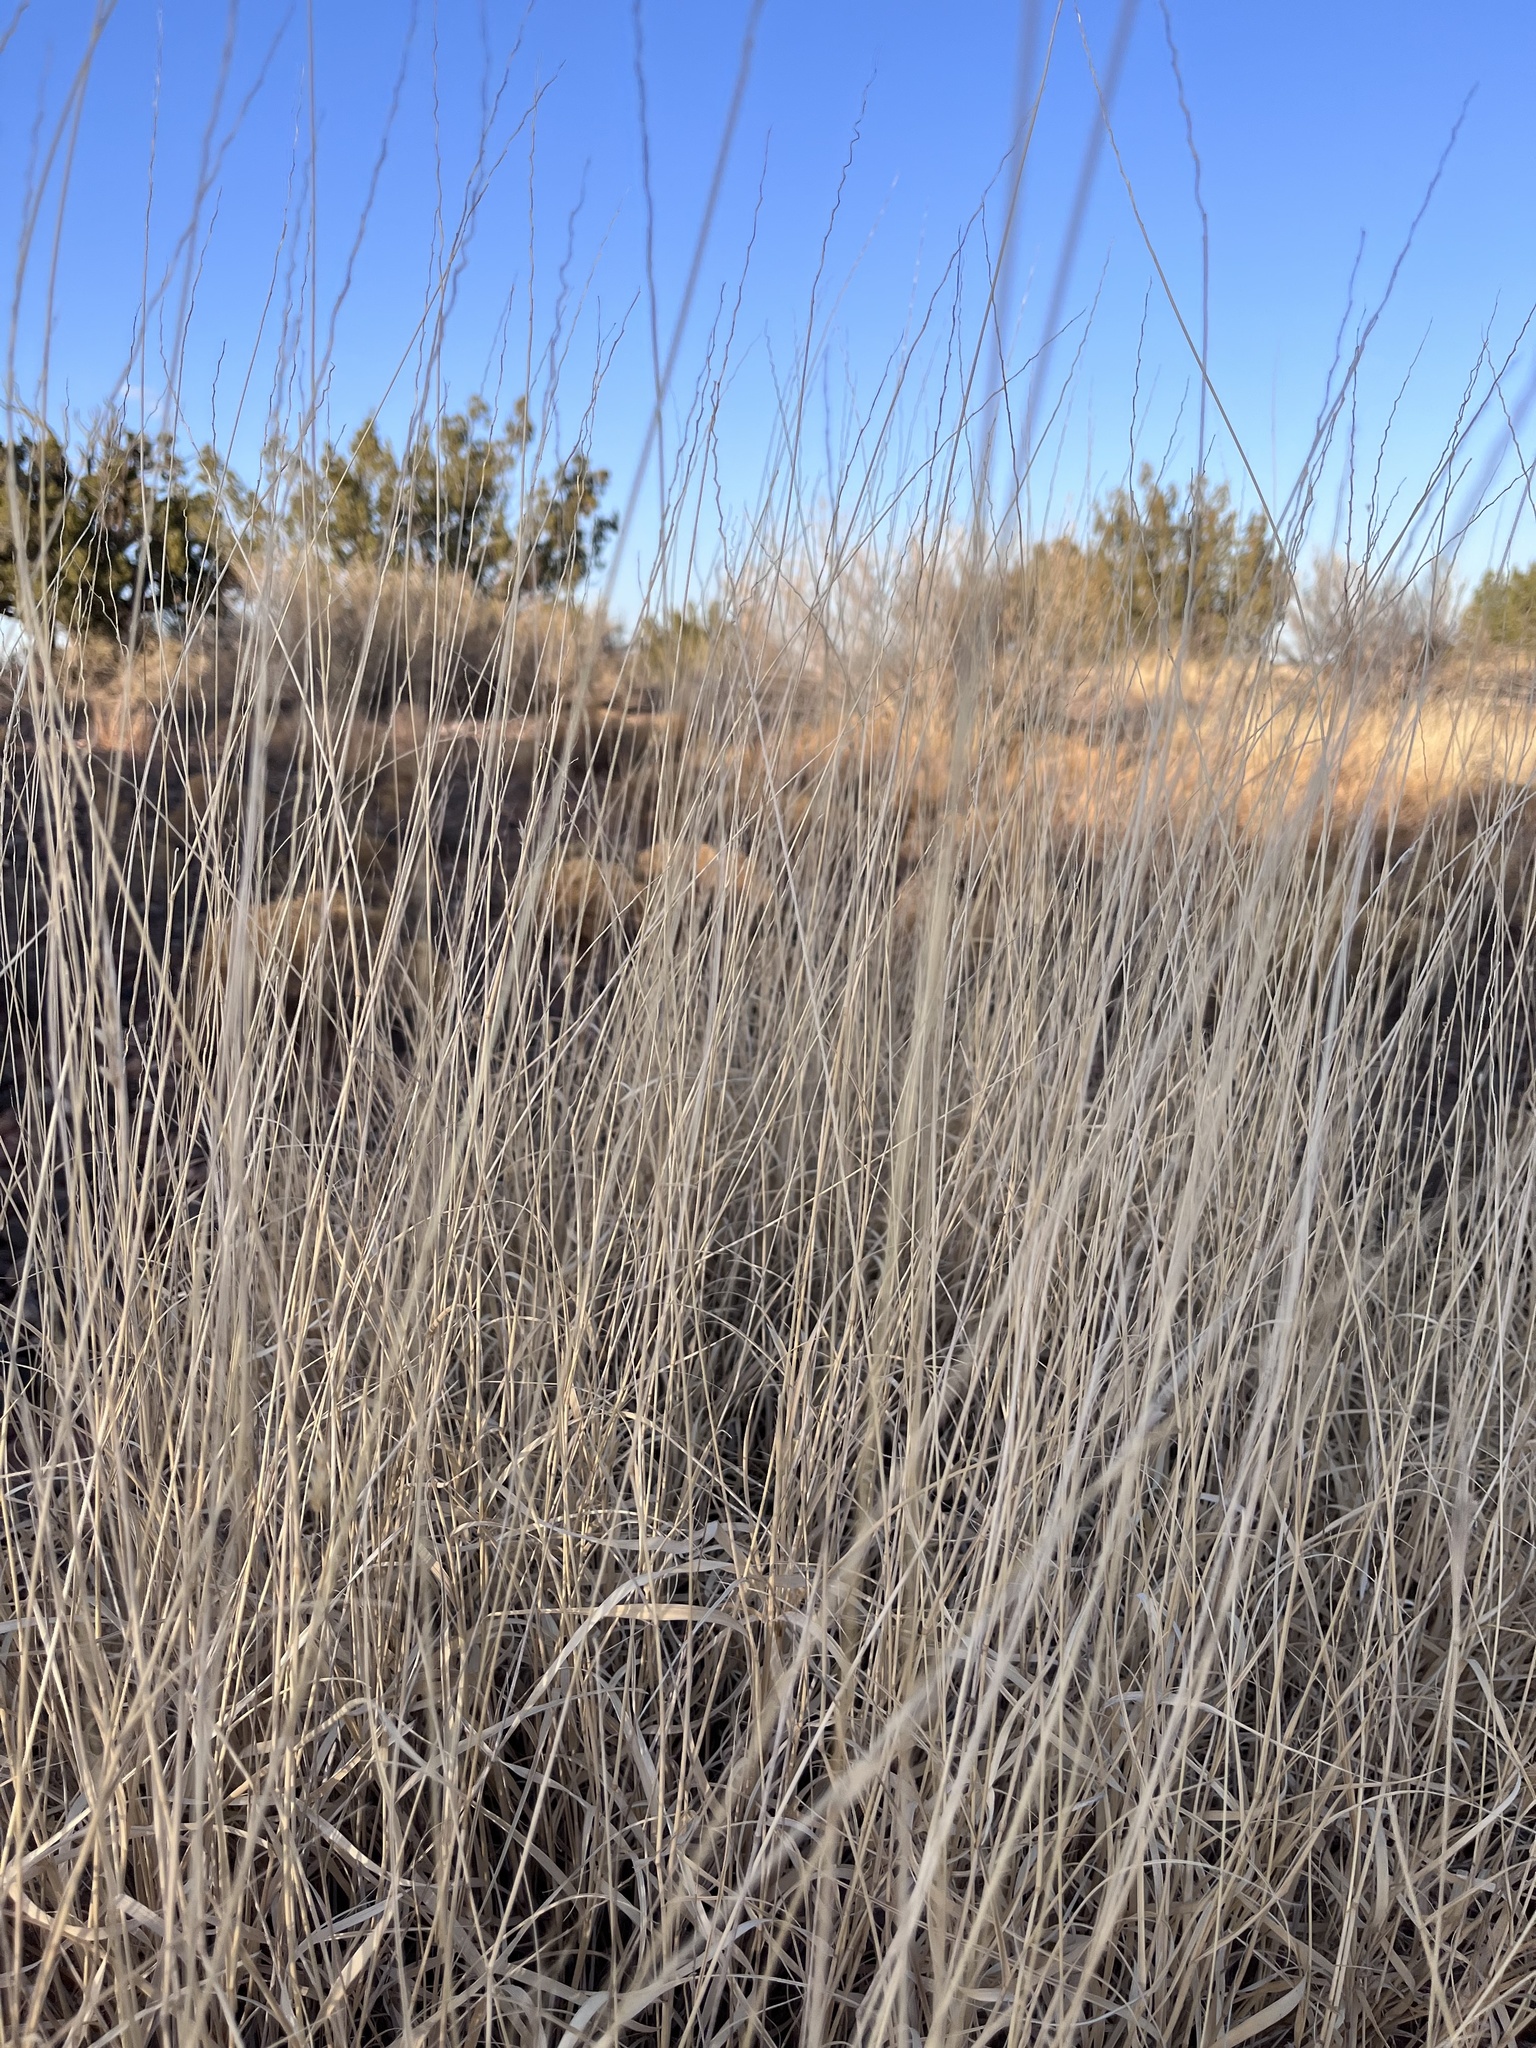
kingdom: Plantae
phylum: Tracheophyta
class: Liliopsida
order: Poales
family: Poaceae
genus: Bouteloua
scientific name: Bouteloua curtipendula
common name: Side-oats grama
